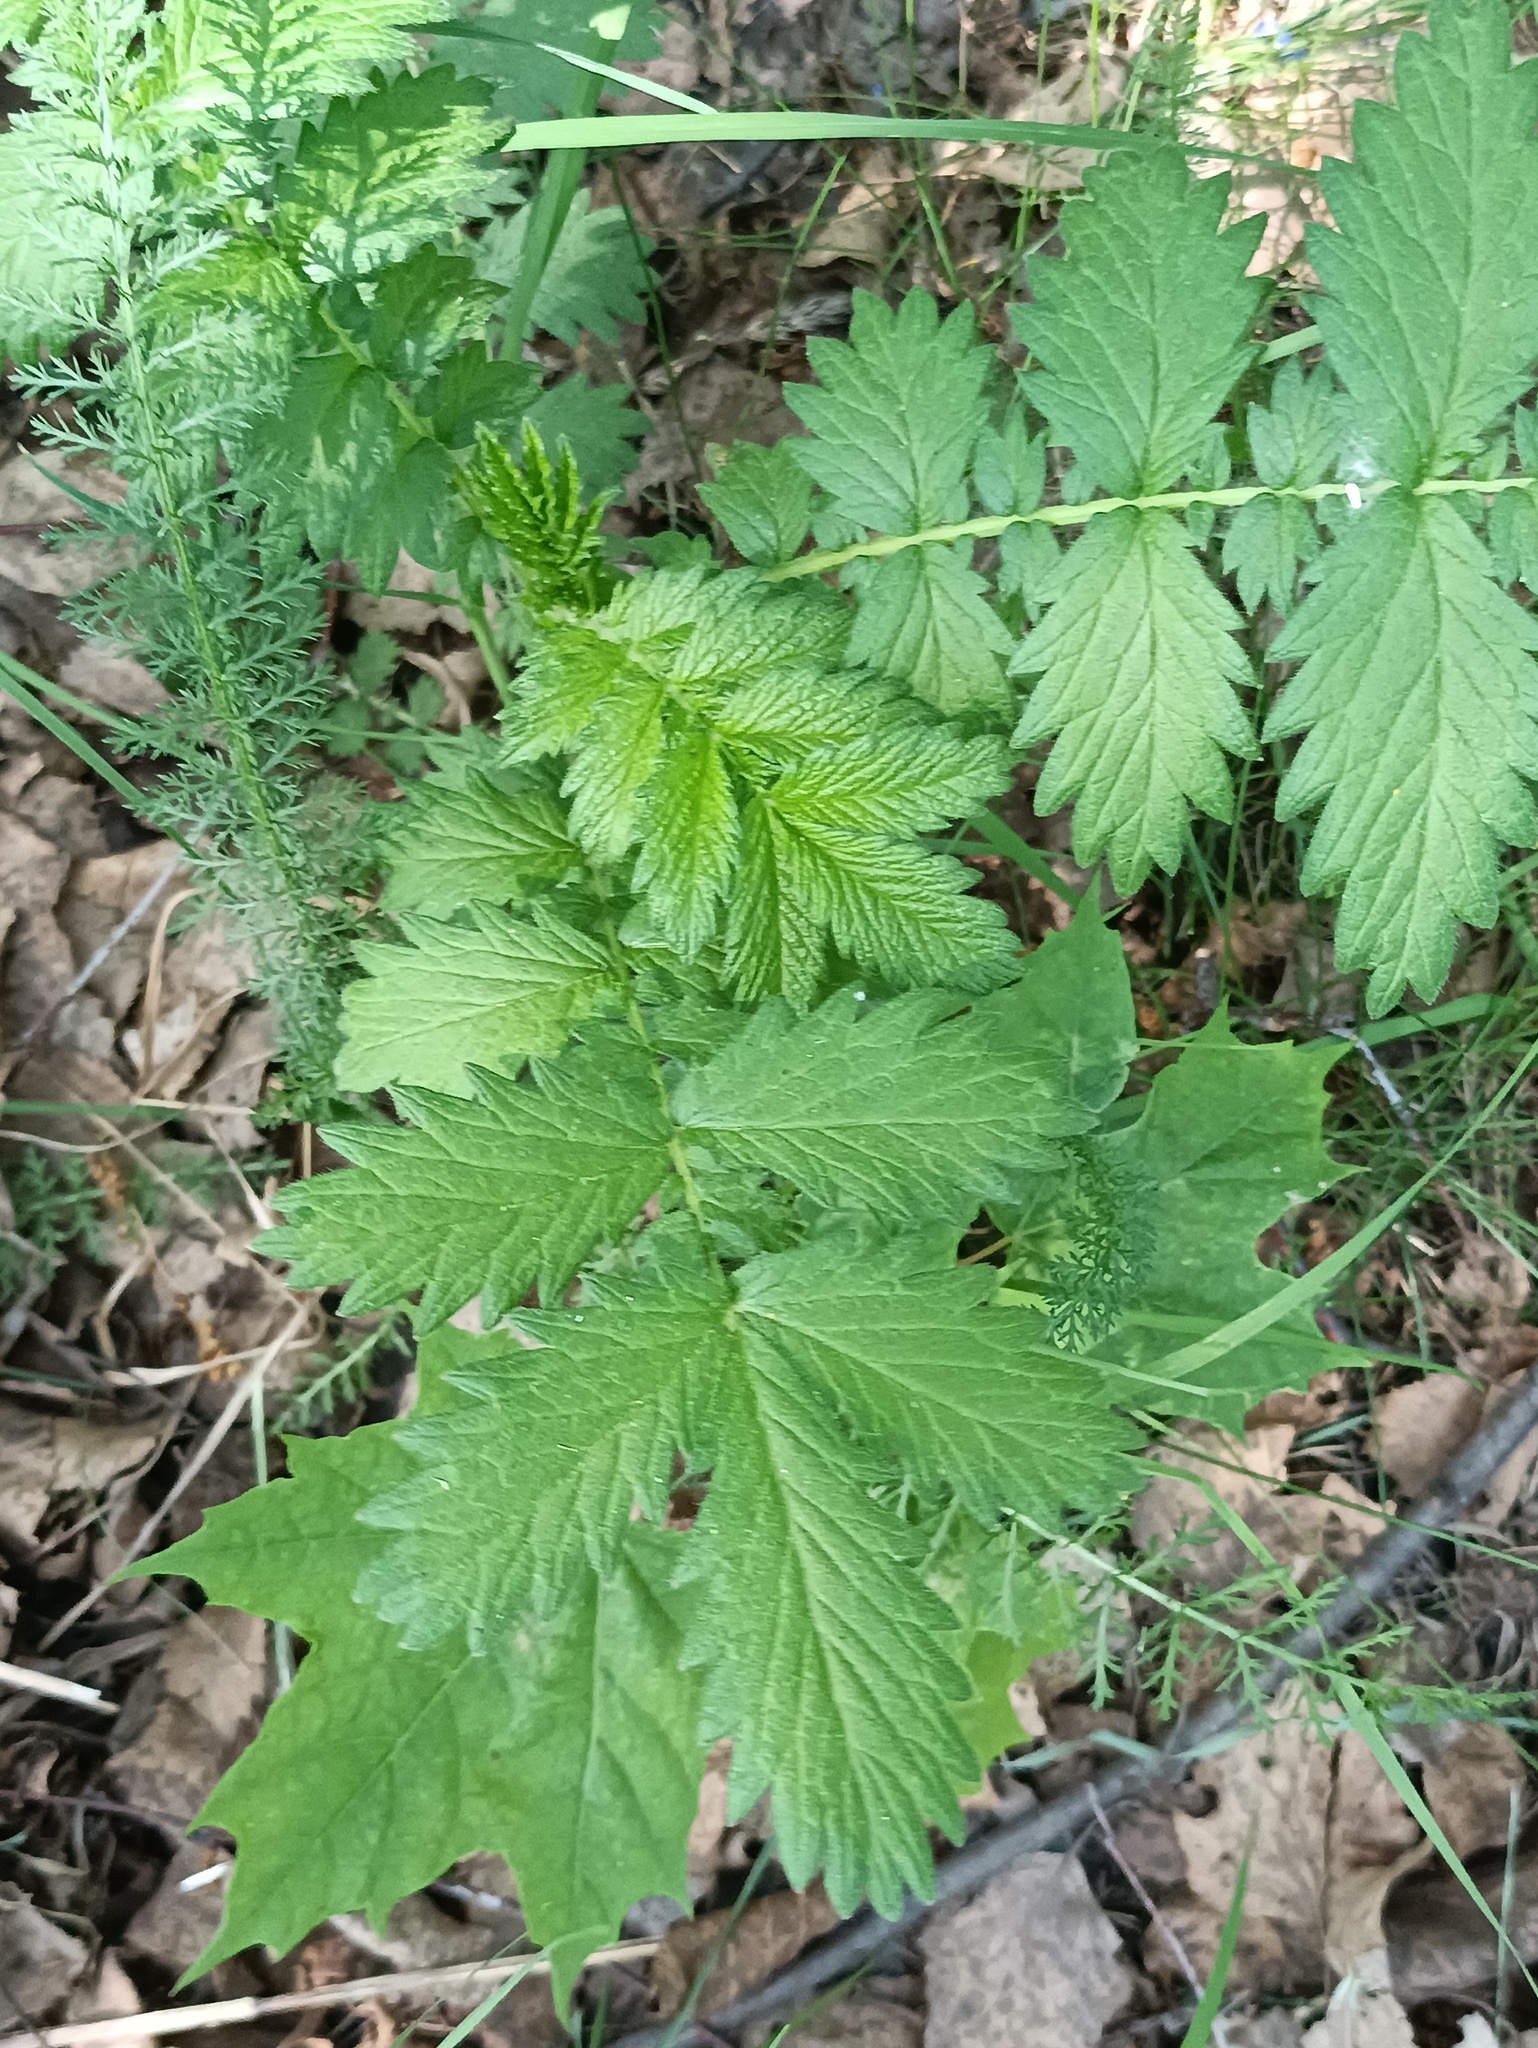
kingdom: Plantae
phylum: Tracheophyta
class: Magnoliopsida
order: Rosales
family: Rosaceae
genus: Agrimonia
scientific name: Agrimonia eupatoria
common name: Agrimony
